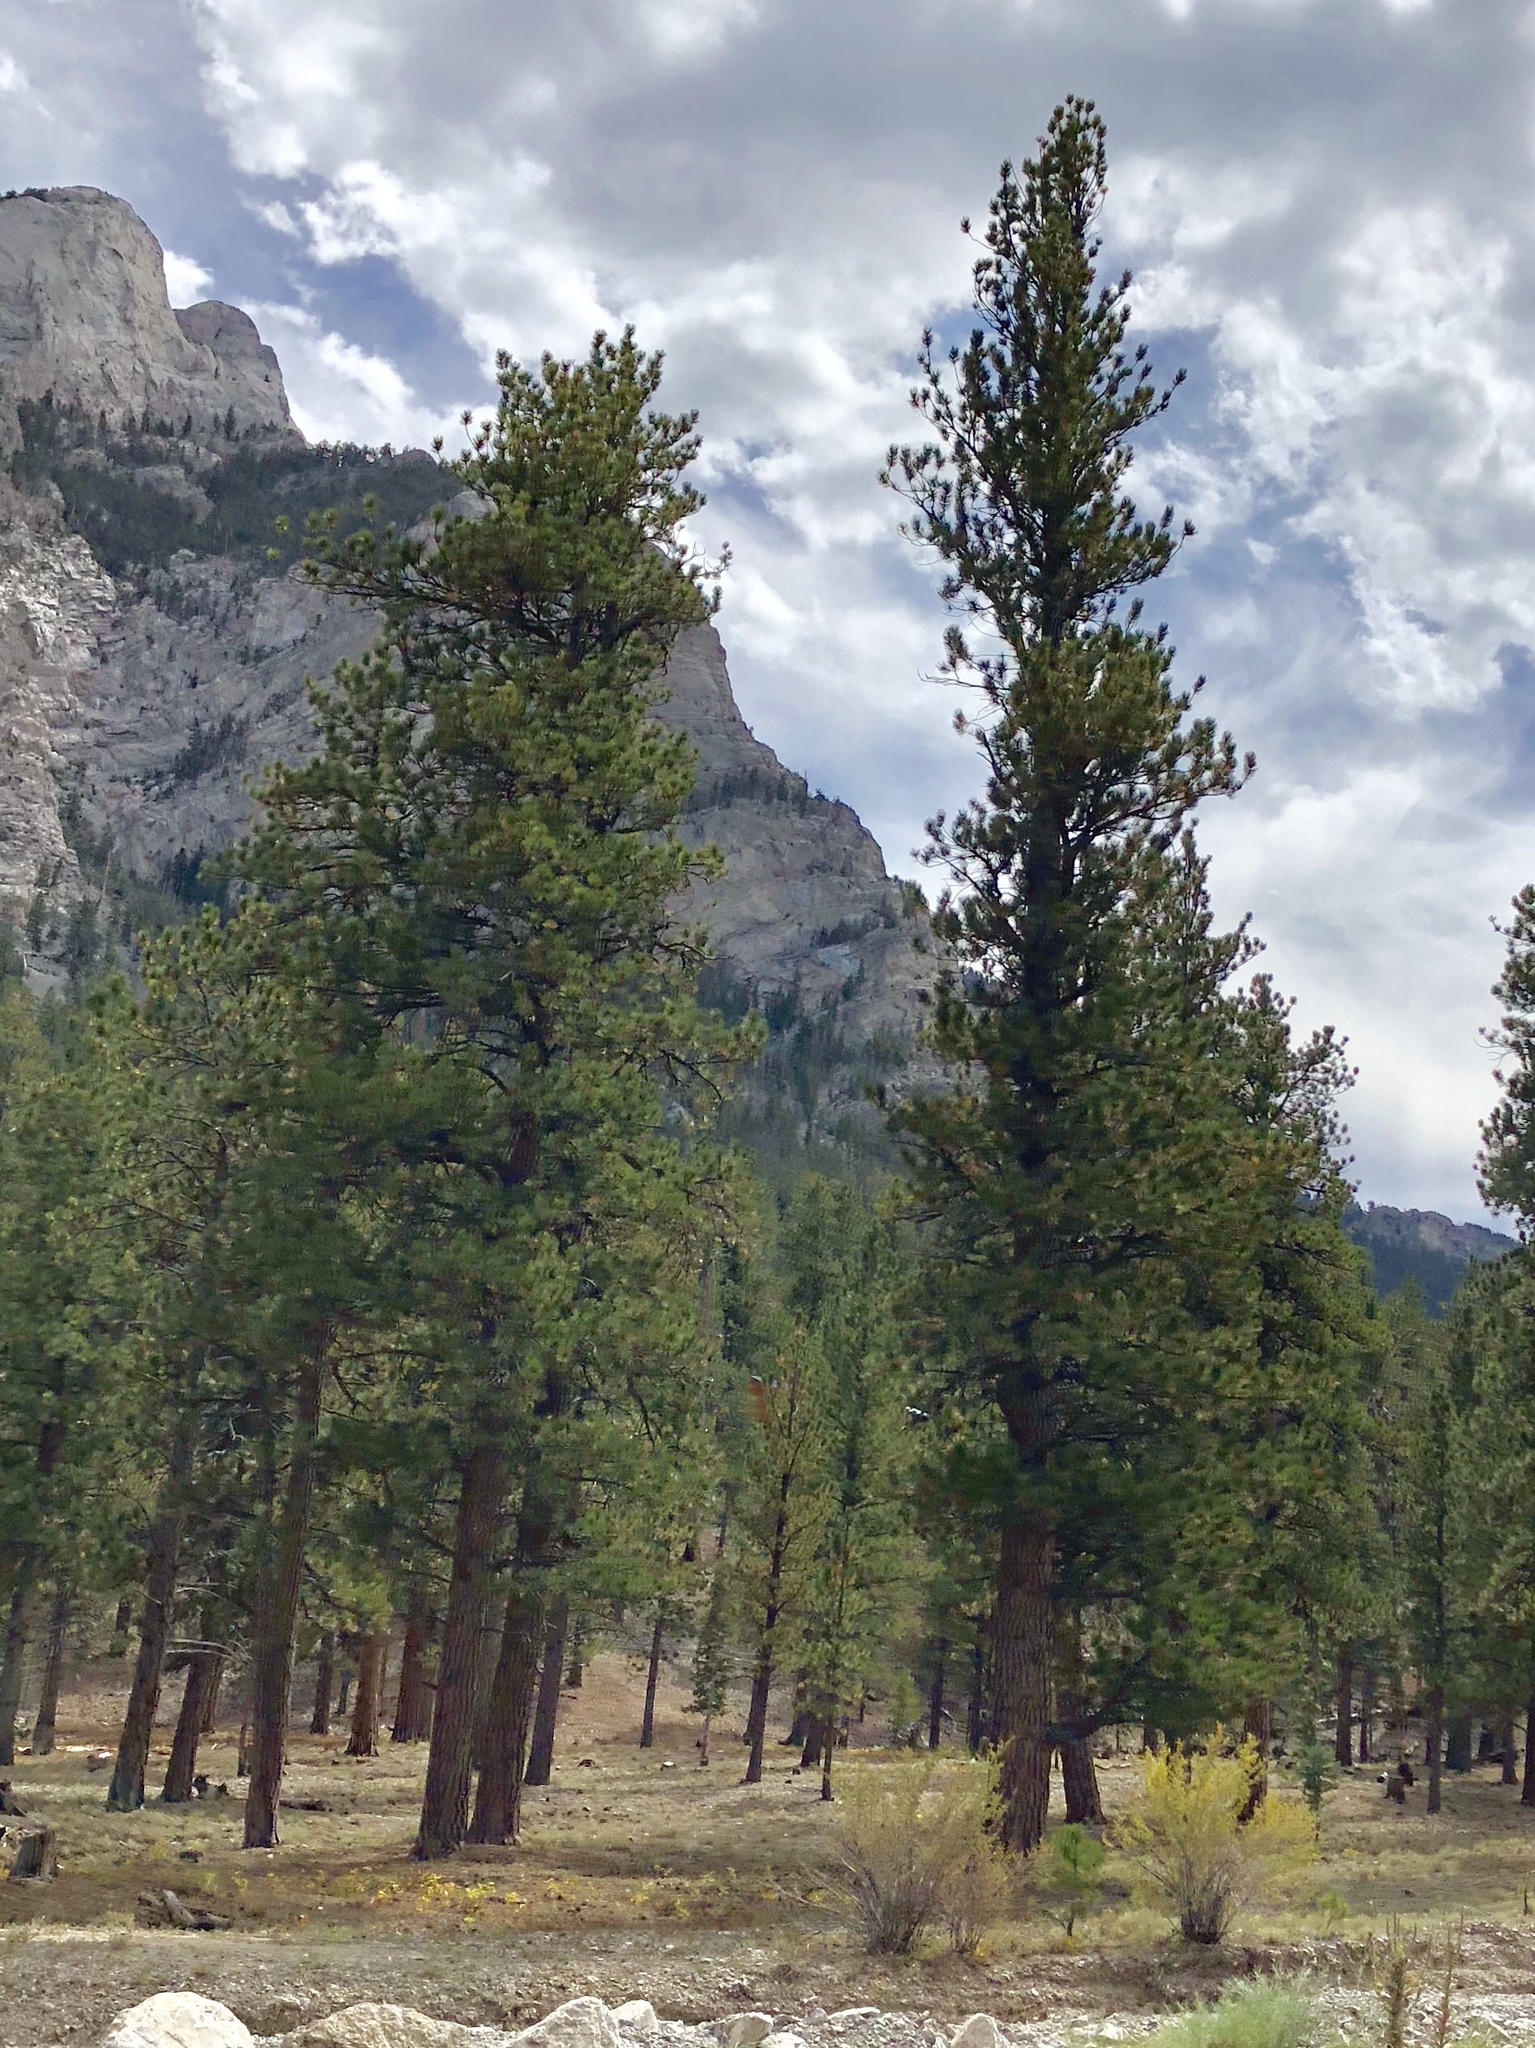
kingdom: Plantae
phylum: Tracheophyta
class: Pinopsida
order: Pinales
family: Pinaceae
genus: Pinus
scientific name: Pinus ponderosa
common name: Western yellow-pine
